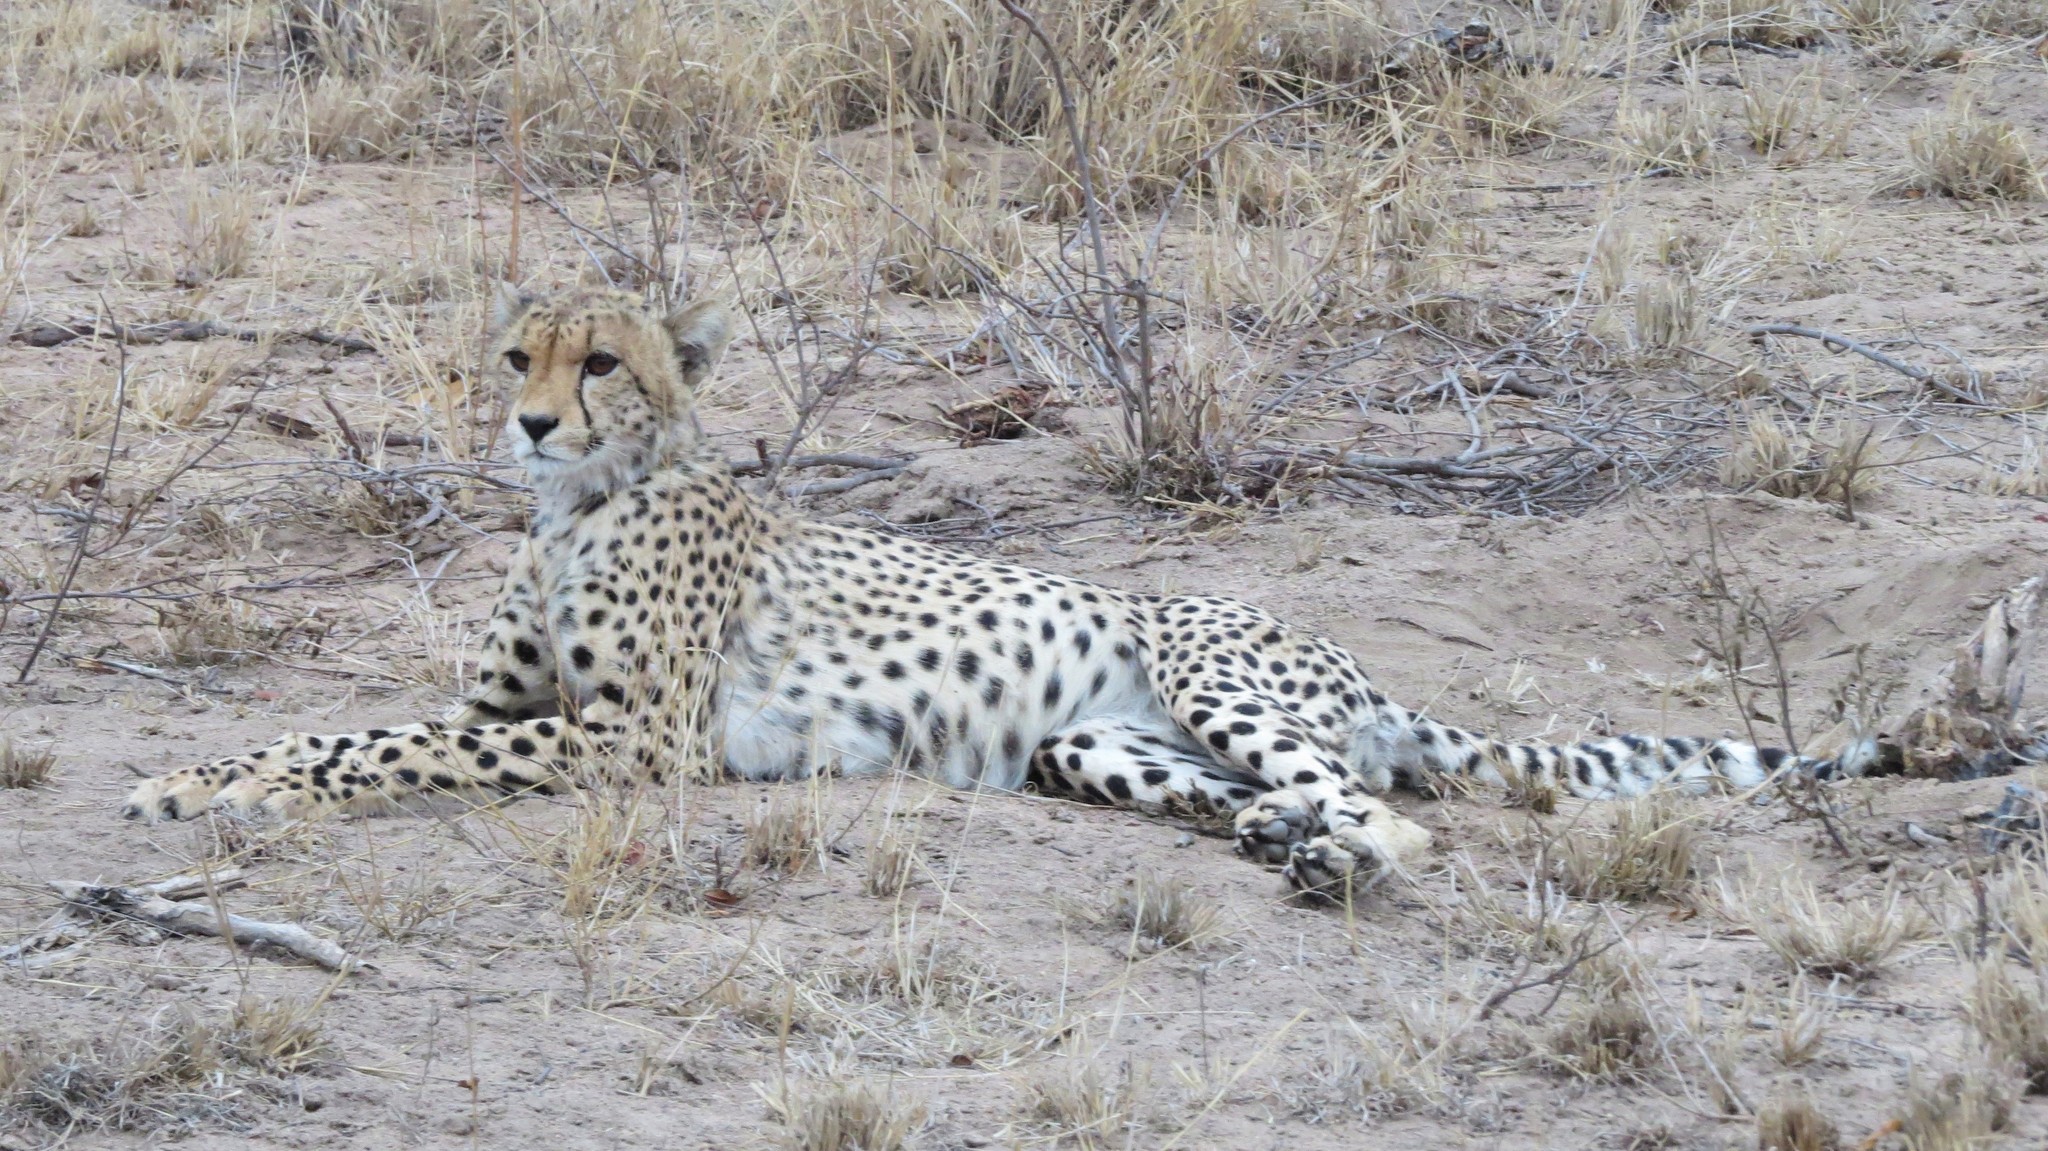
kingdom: Animalia
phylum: Chordata
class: Mammalia
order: Carnivora
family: Felidae
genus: Acinonyx
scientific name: Acinonyx jubatus
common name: Cheetah
